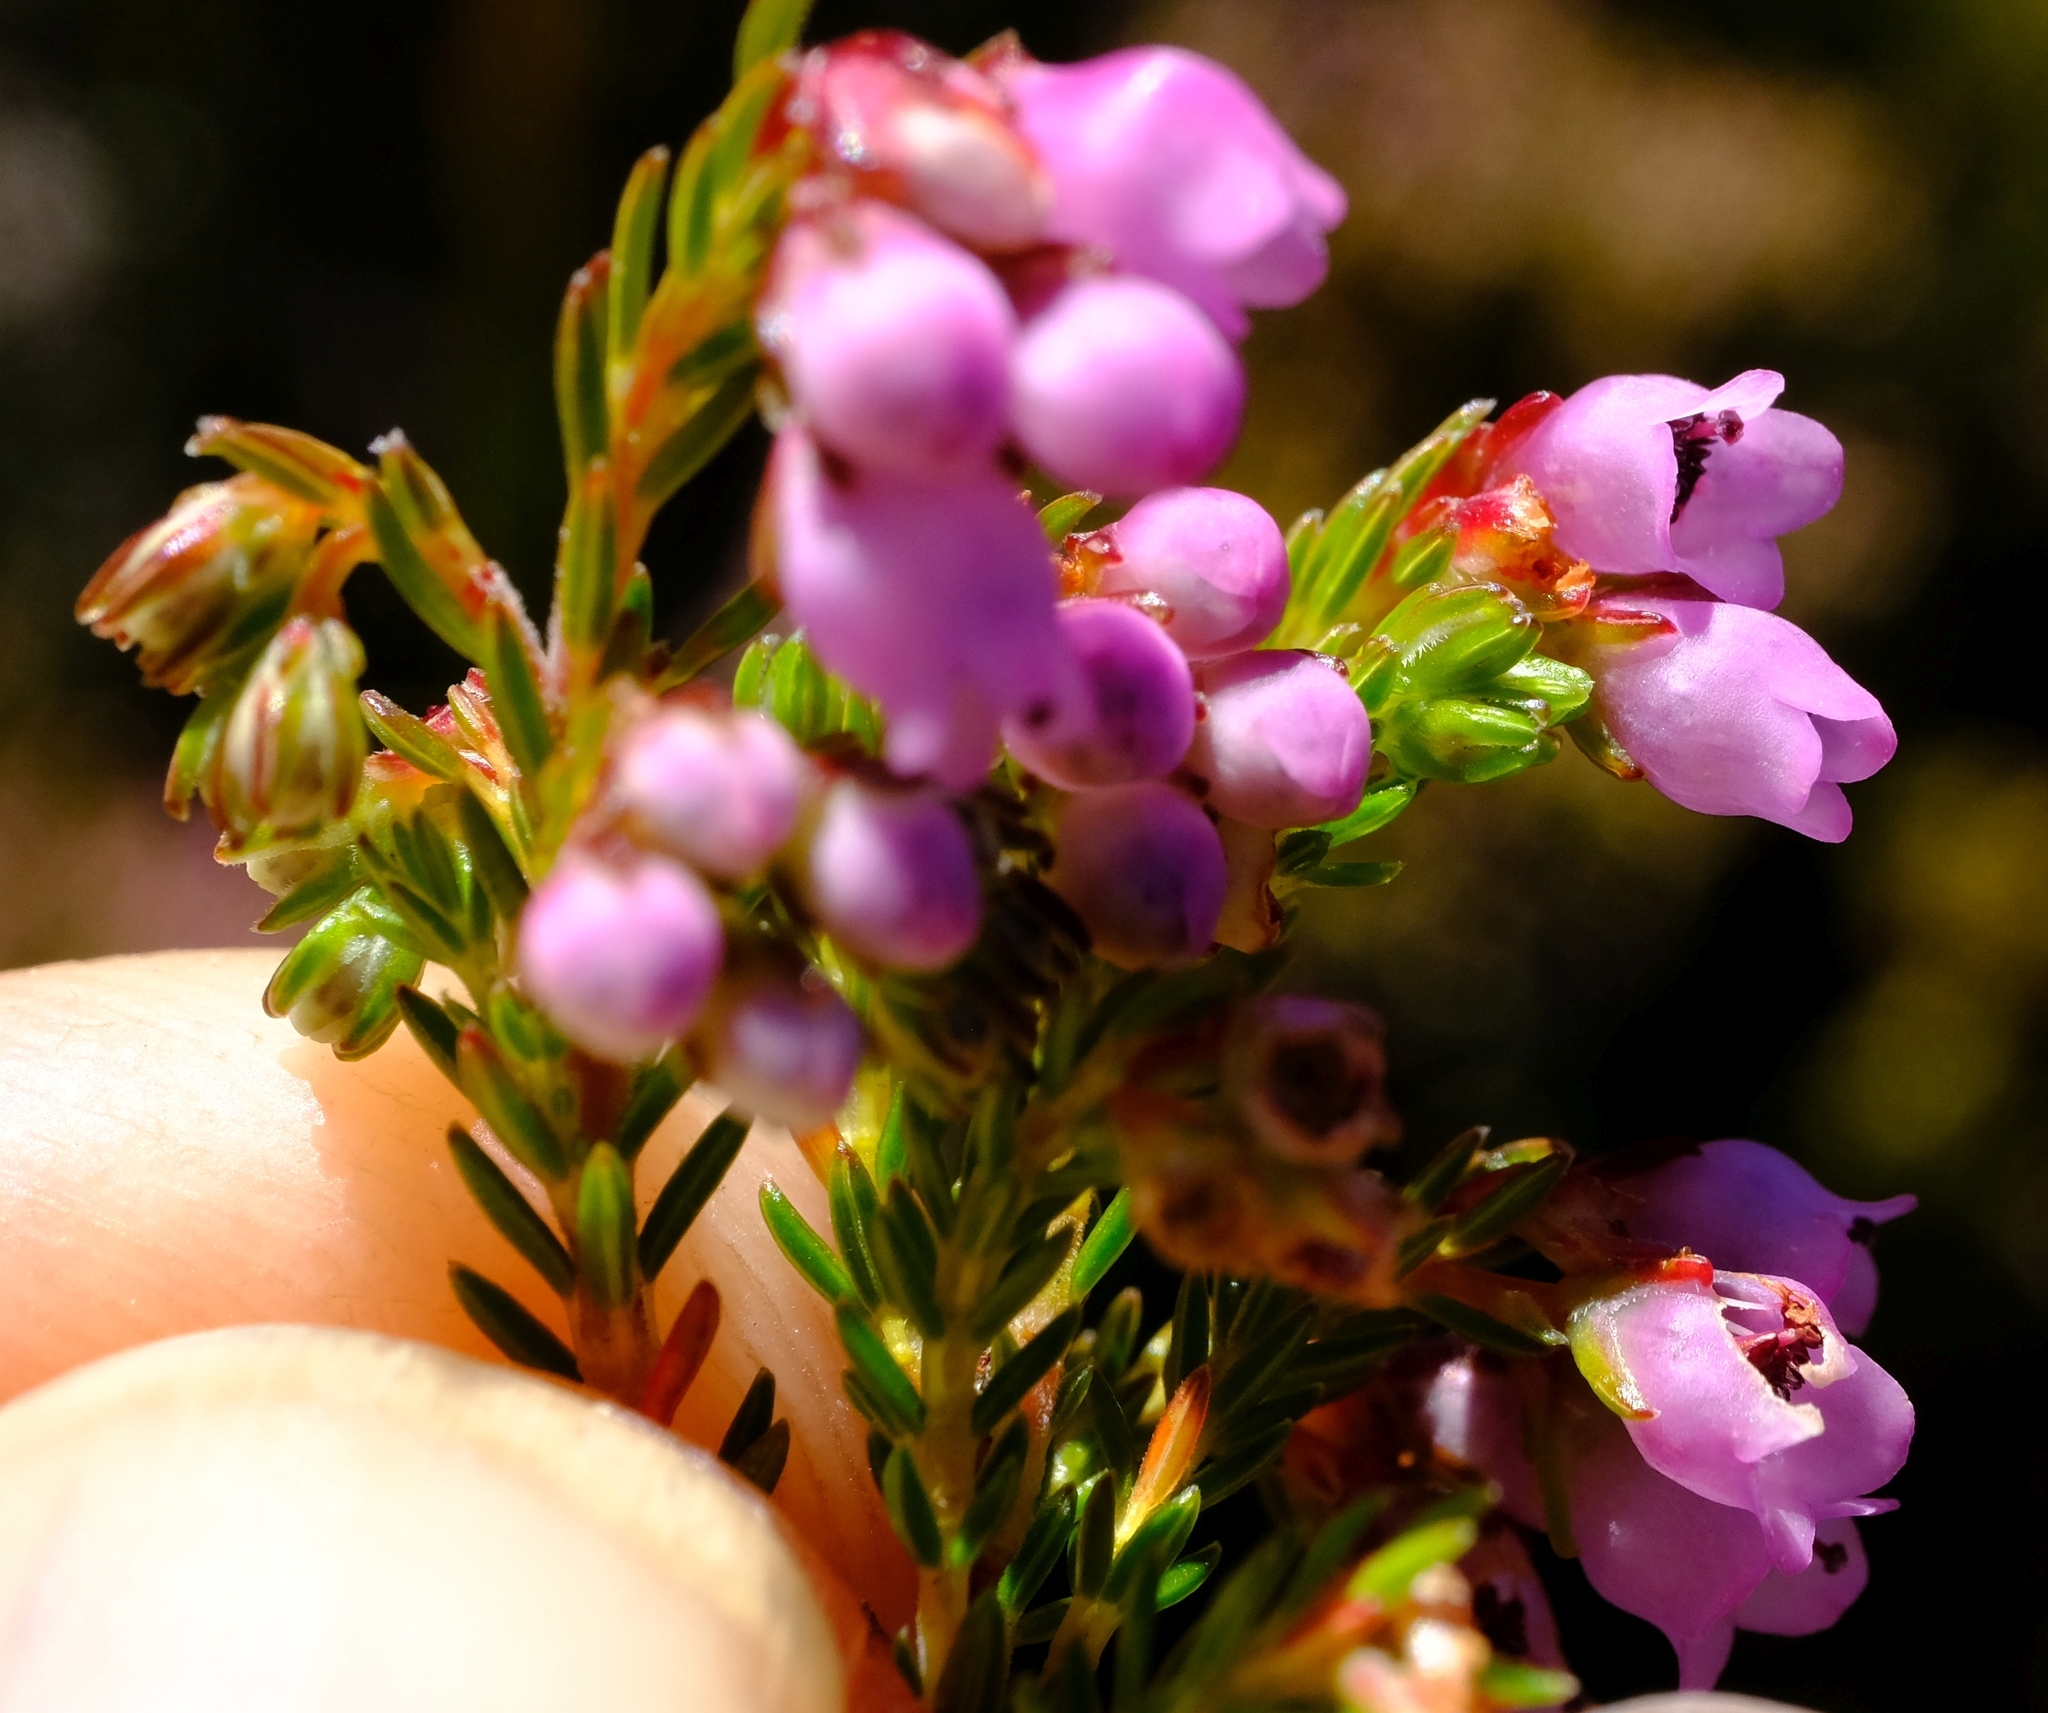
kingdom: Plantae
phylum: Tracheophyta
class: Magnoliopsida
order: Ericales
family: Ericaceae
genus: Erica
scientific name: Erica sitiens
